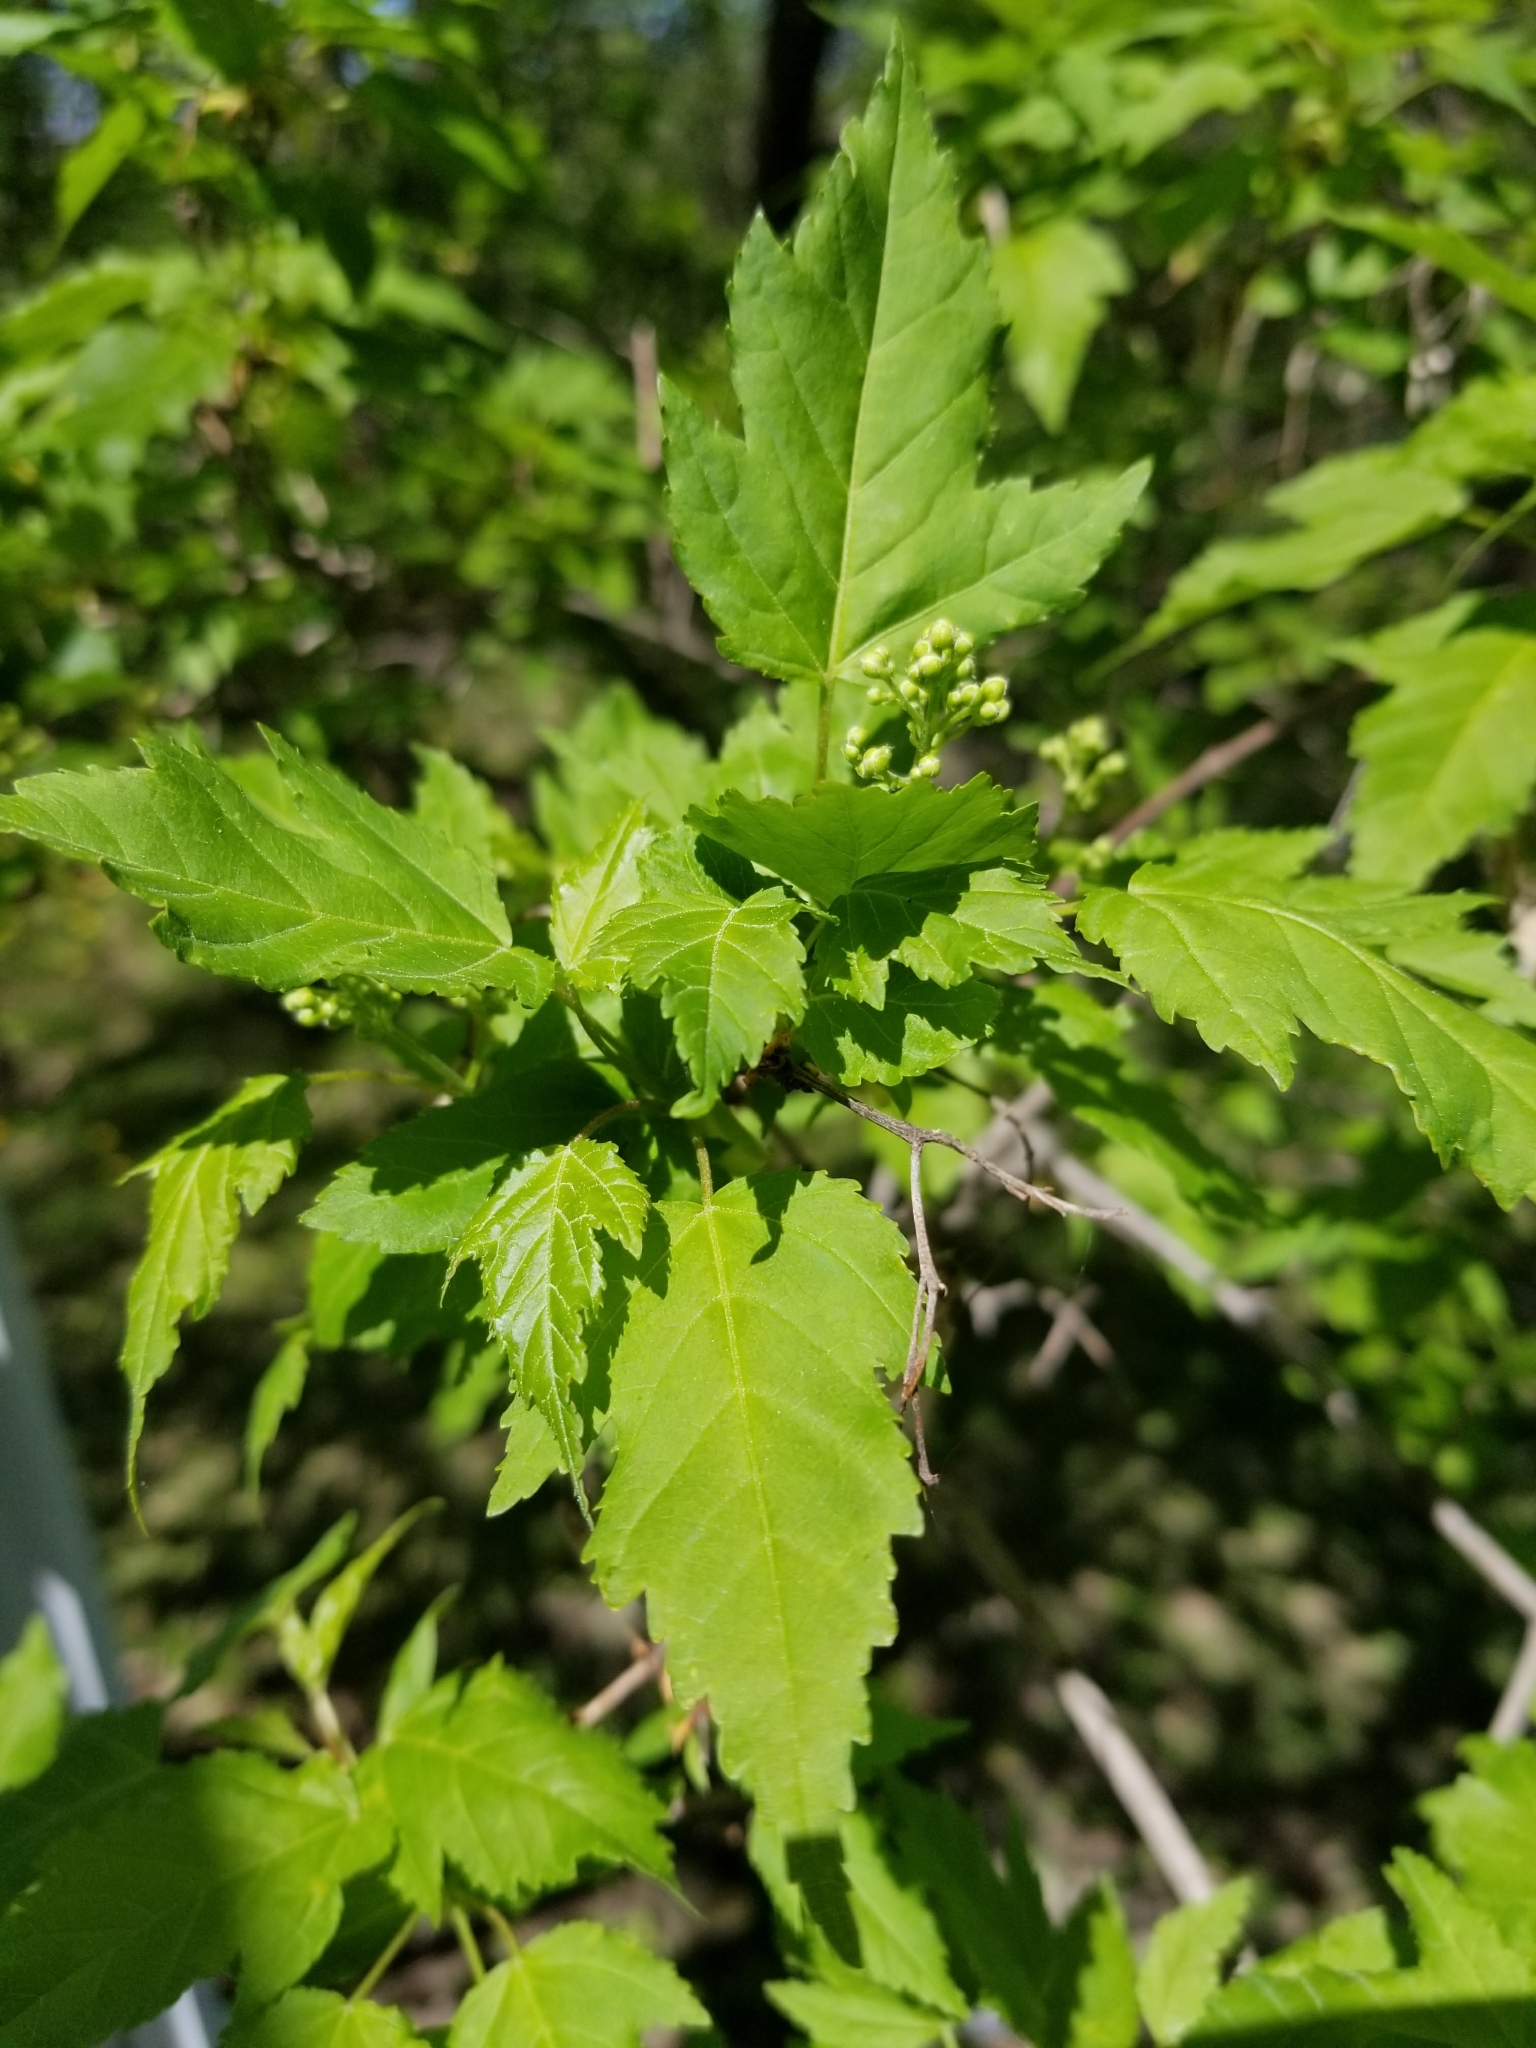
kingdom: Plantae
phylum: Tracheophyta
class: Magnoliopsida
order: Sapindales
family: Sapindaceae
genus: Acer
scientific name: Acer tataricum
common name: Tartar maple
